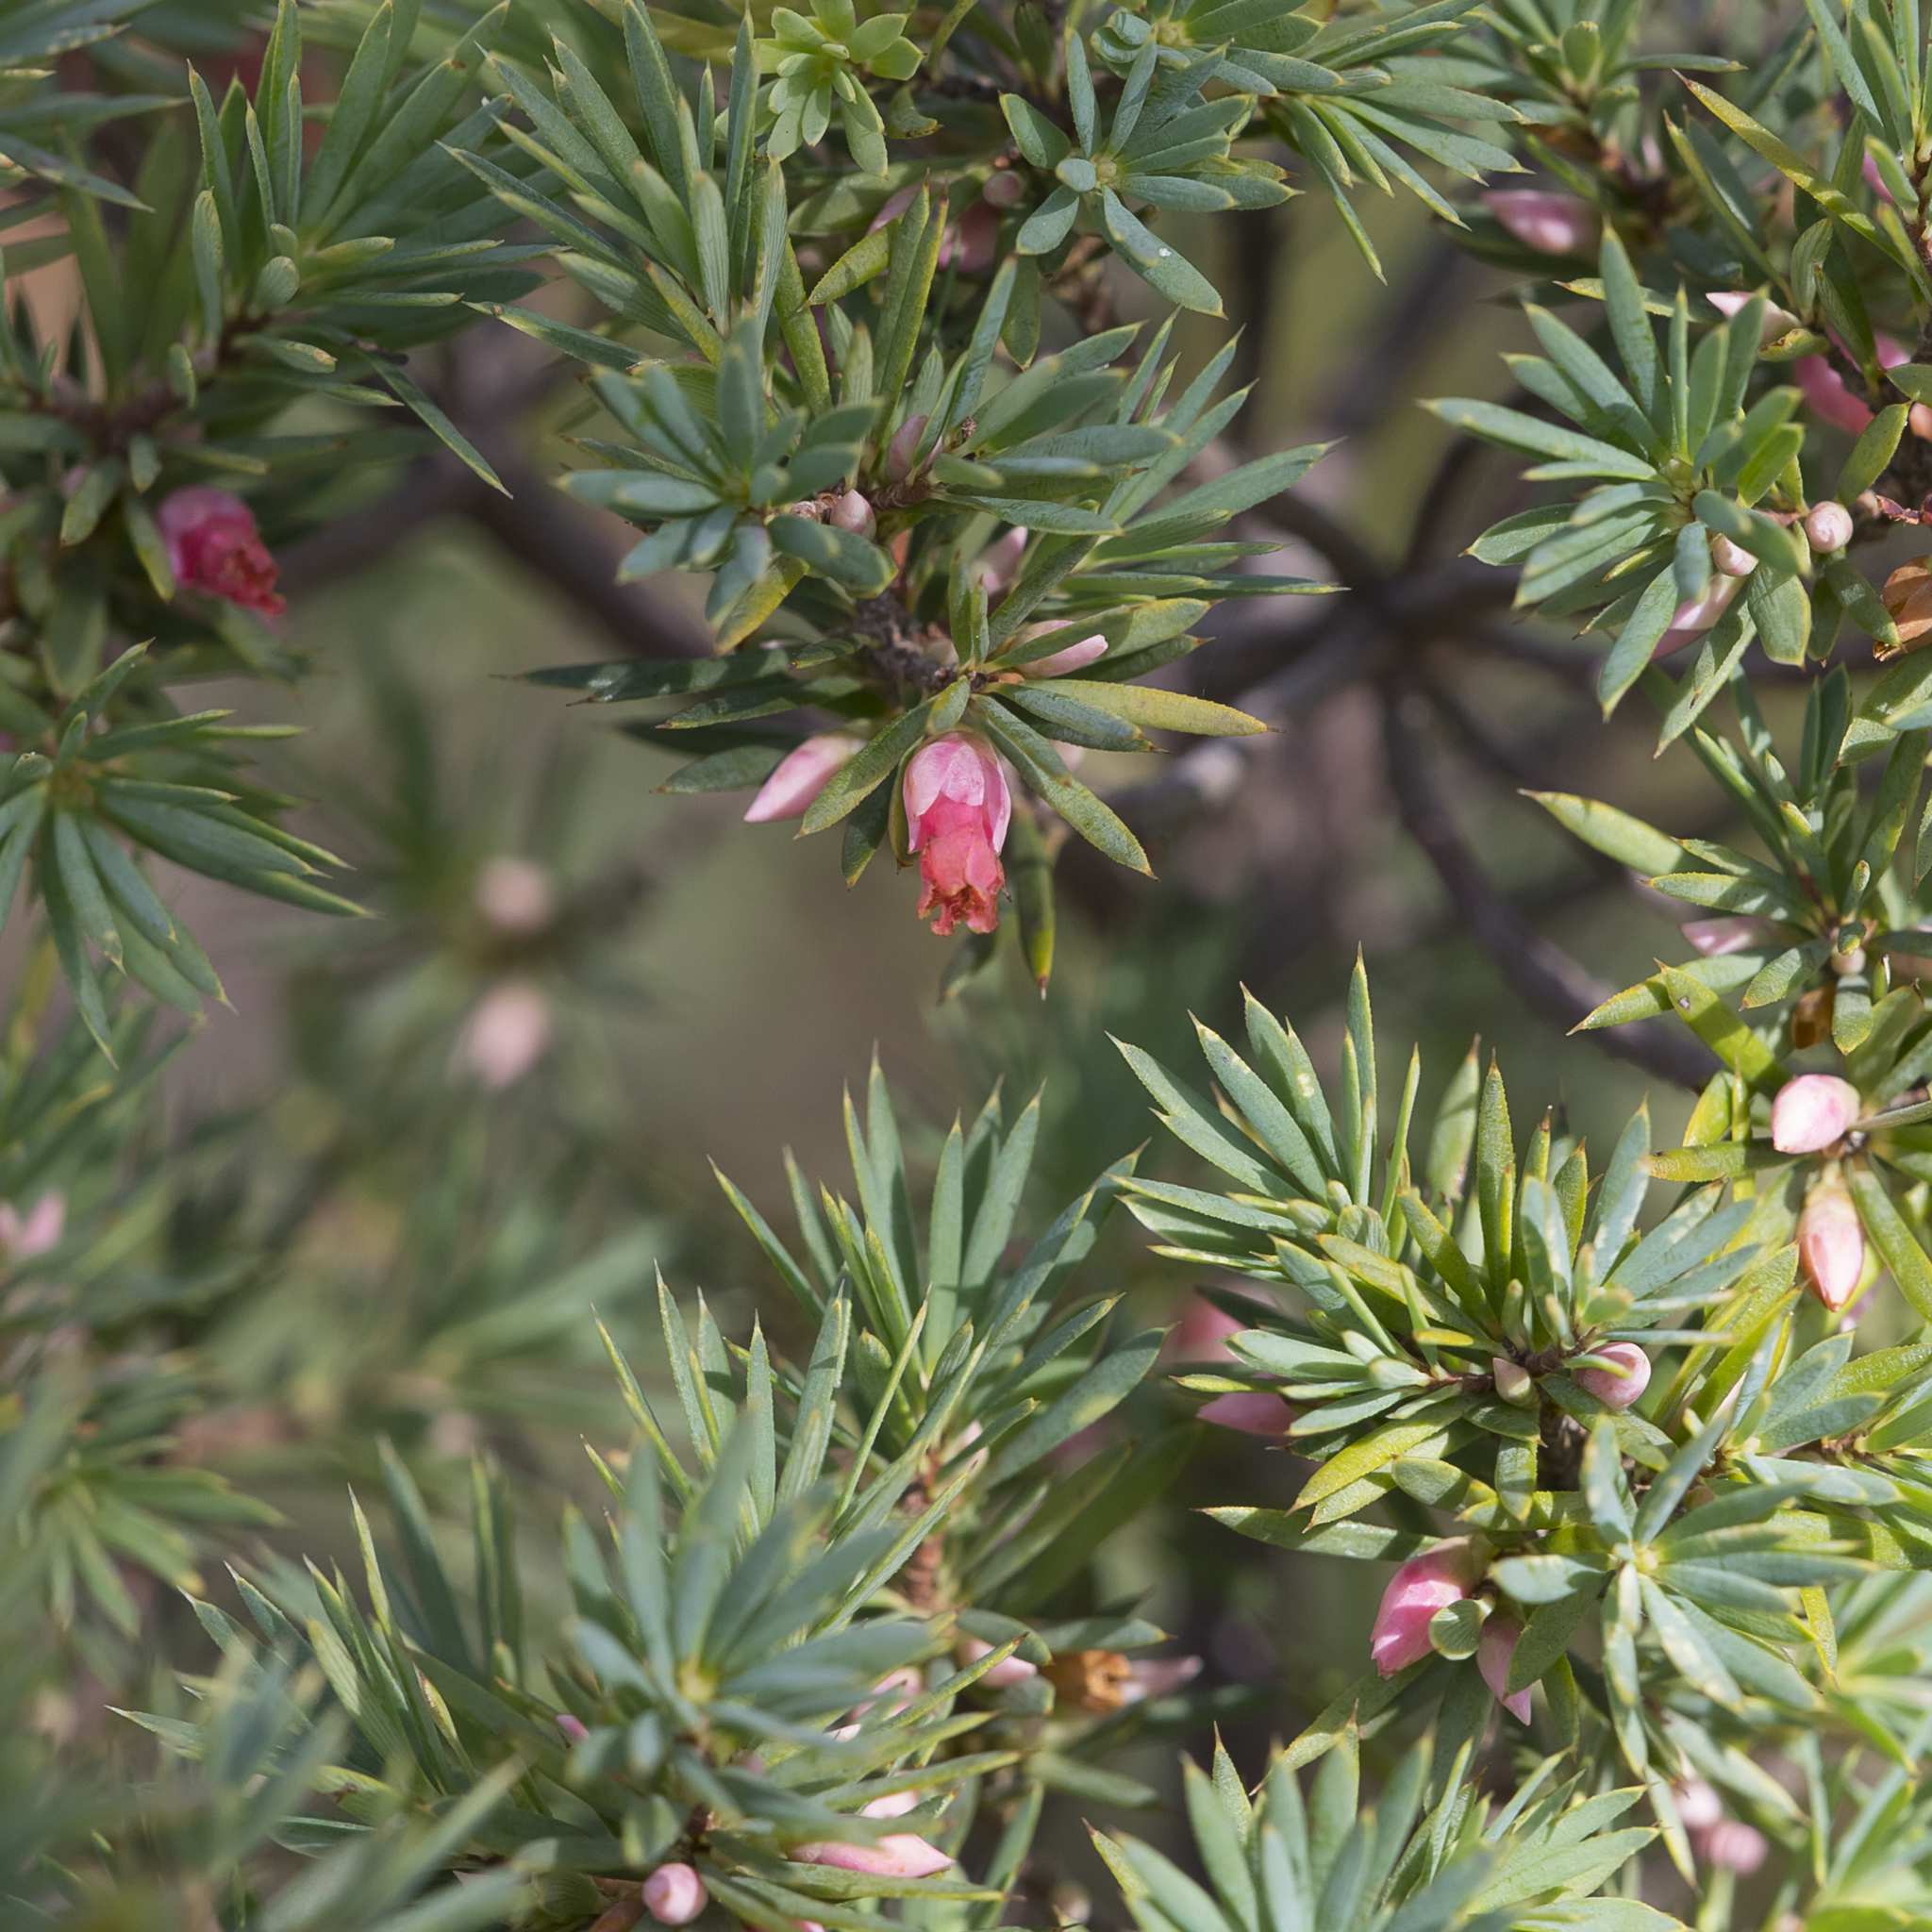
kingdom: Plantae
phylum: Tracheophyta
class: Magnoliopsida
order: Ericales
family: Ericaceae
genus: Brachyloma
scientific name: Brachyloma ericoides
